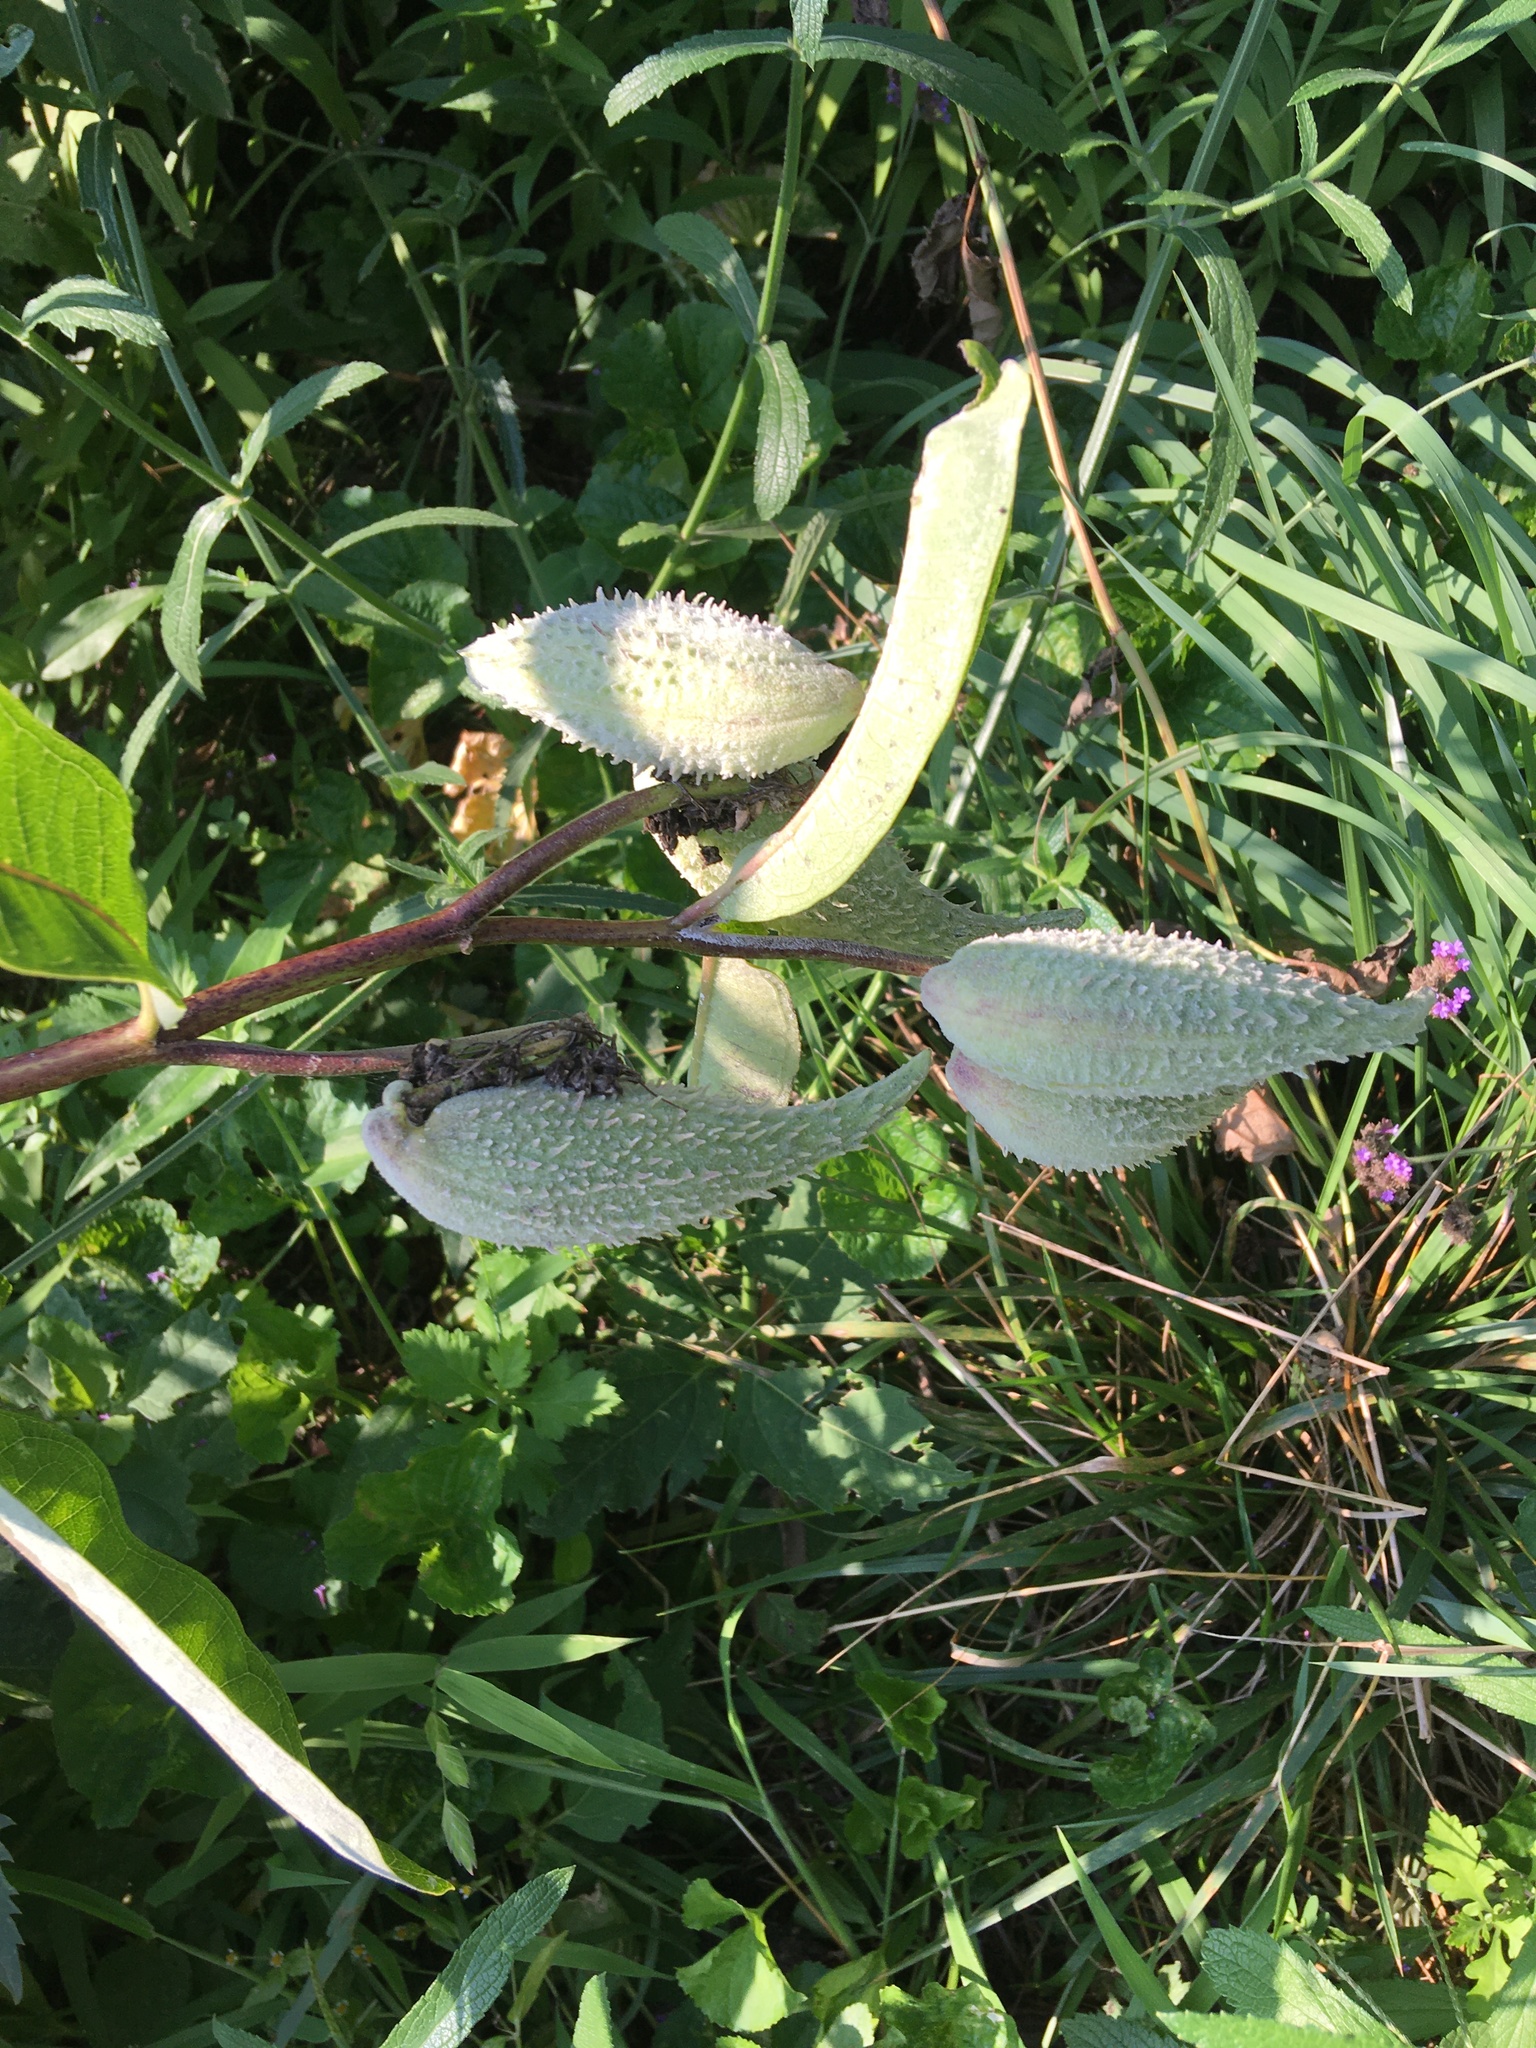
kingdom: Plantae
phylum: Tracheophyta
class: Magnoliopsida
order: Gentianales
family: Apocynaceae
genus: Asclepias
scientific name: Asclepias syriaca
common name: Common milkweed
